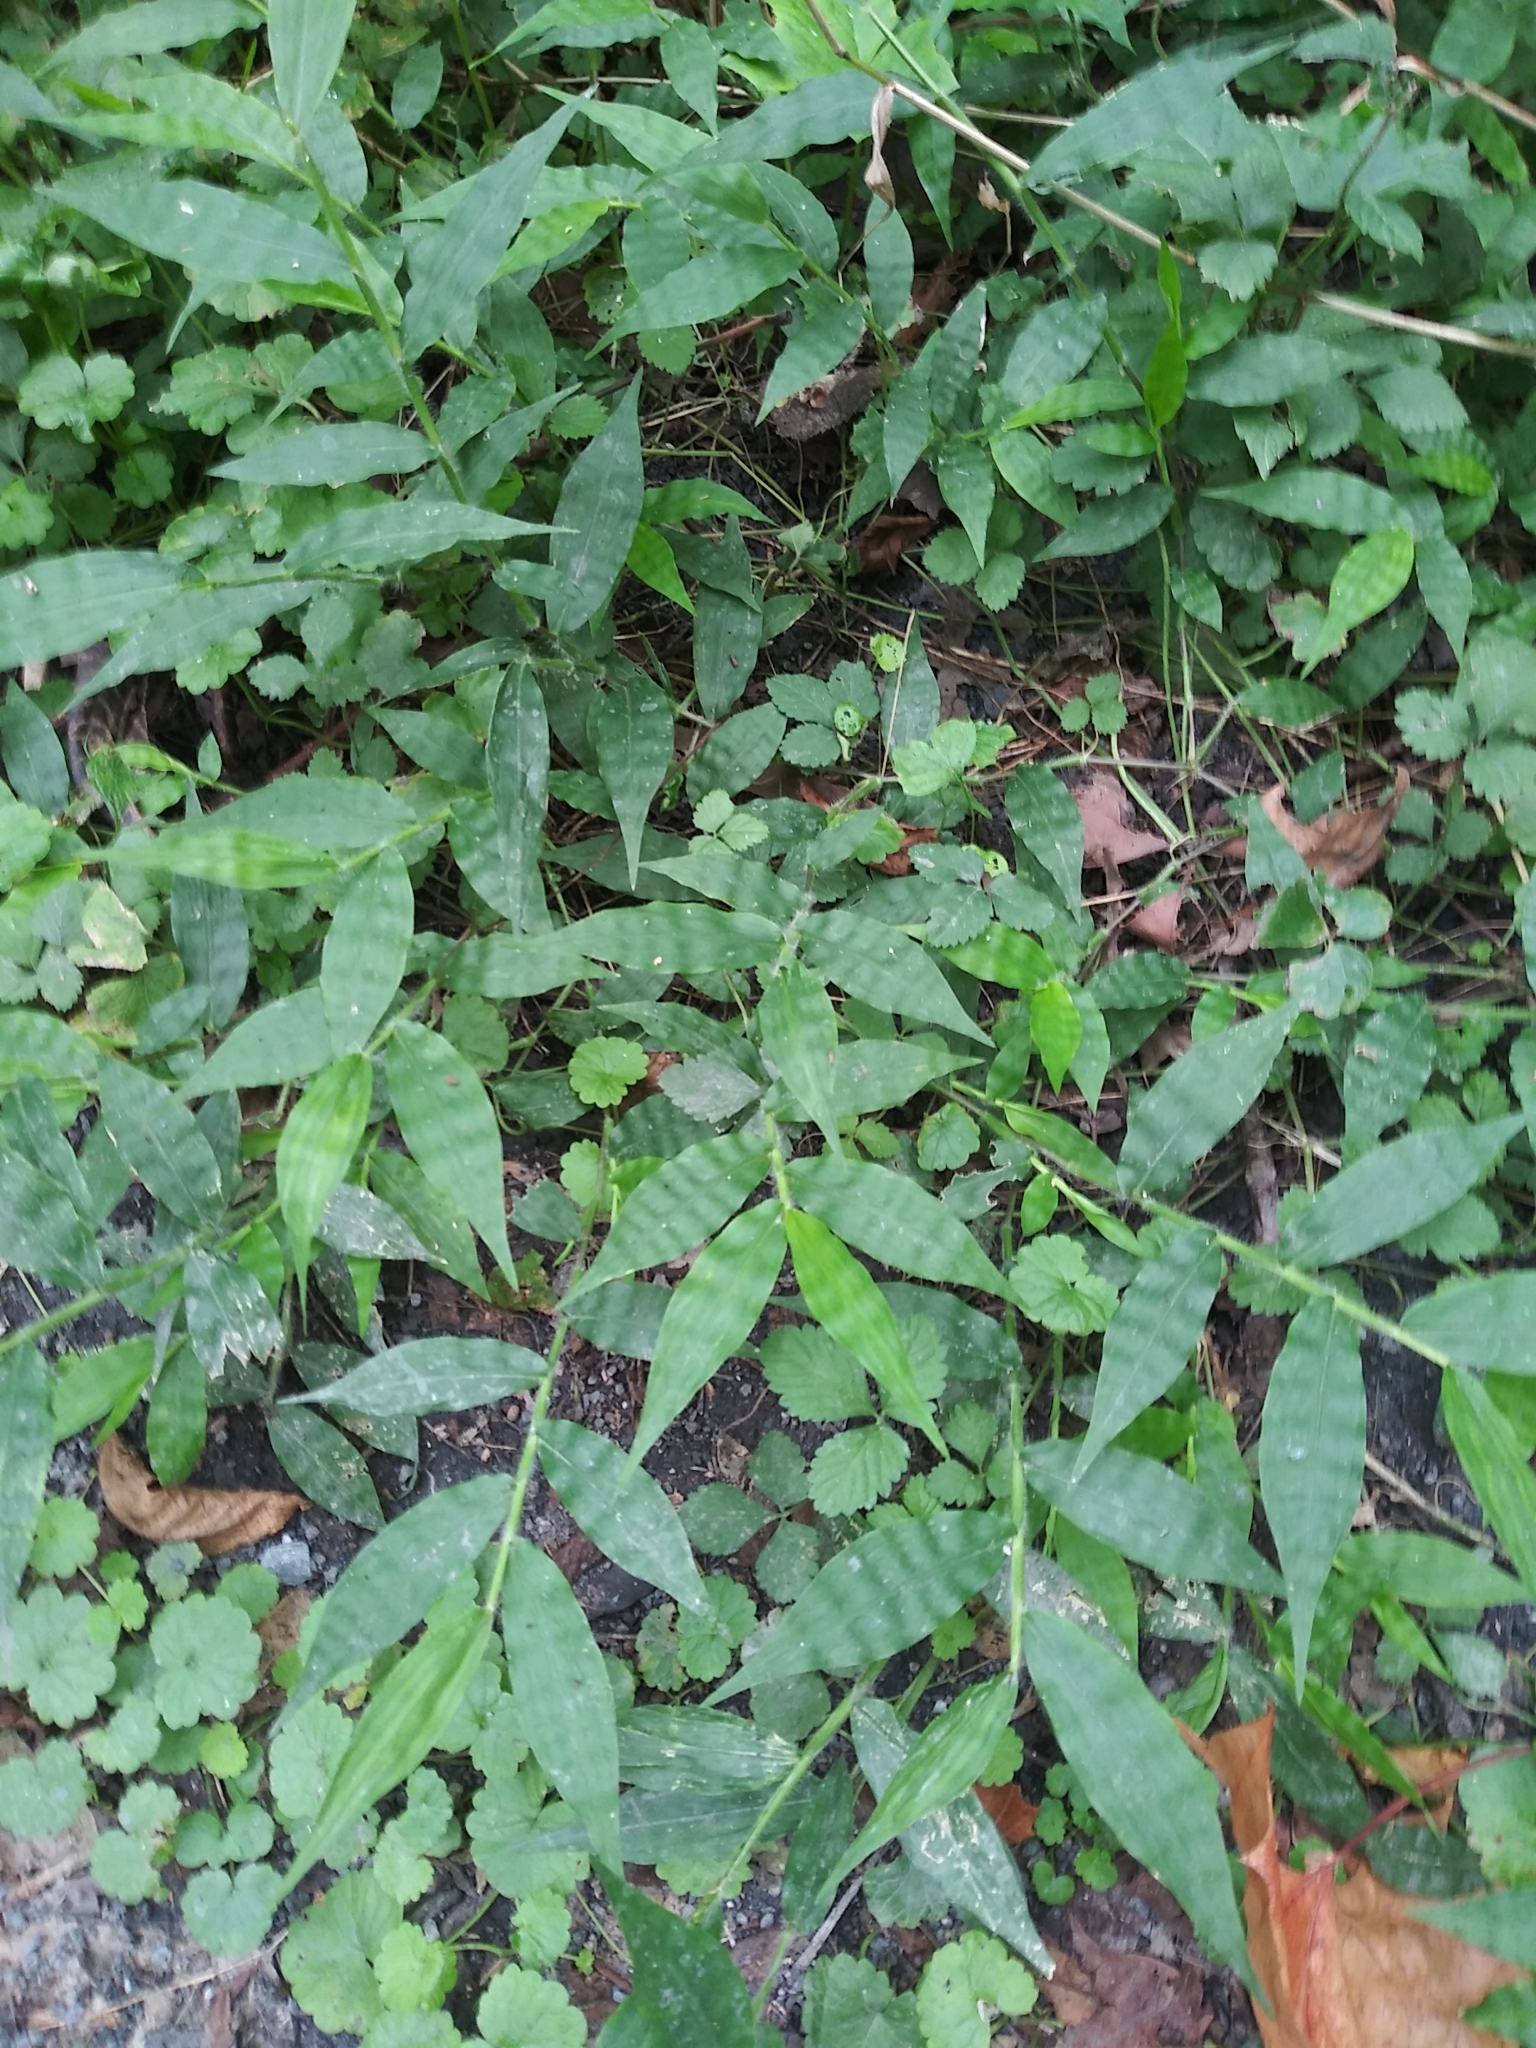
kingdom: Plantae
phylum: Tracheophyta
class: Liliopsida
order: Poales
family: Poaceae
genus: Oplismenus
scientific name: Oplismenus undulatifolius
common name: Wavyleaf basketgrass
